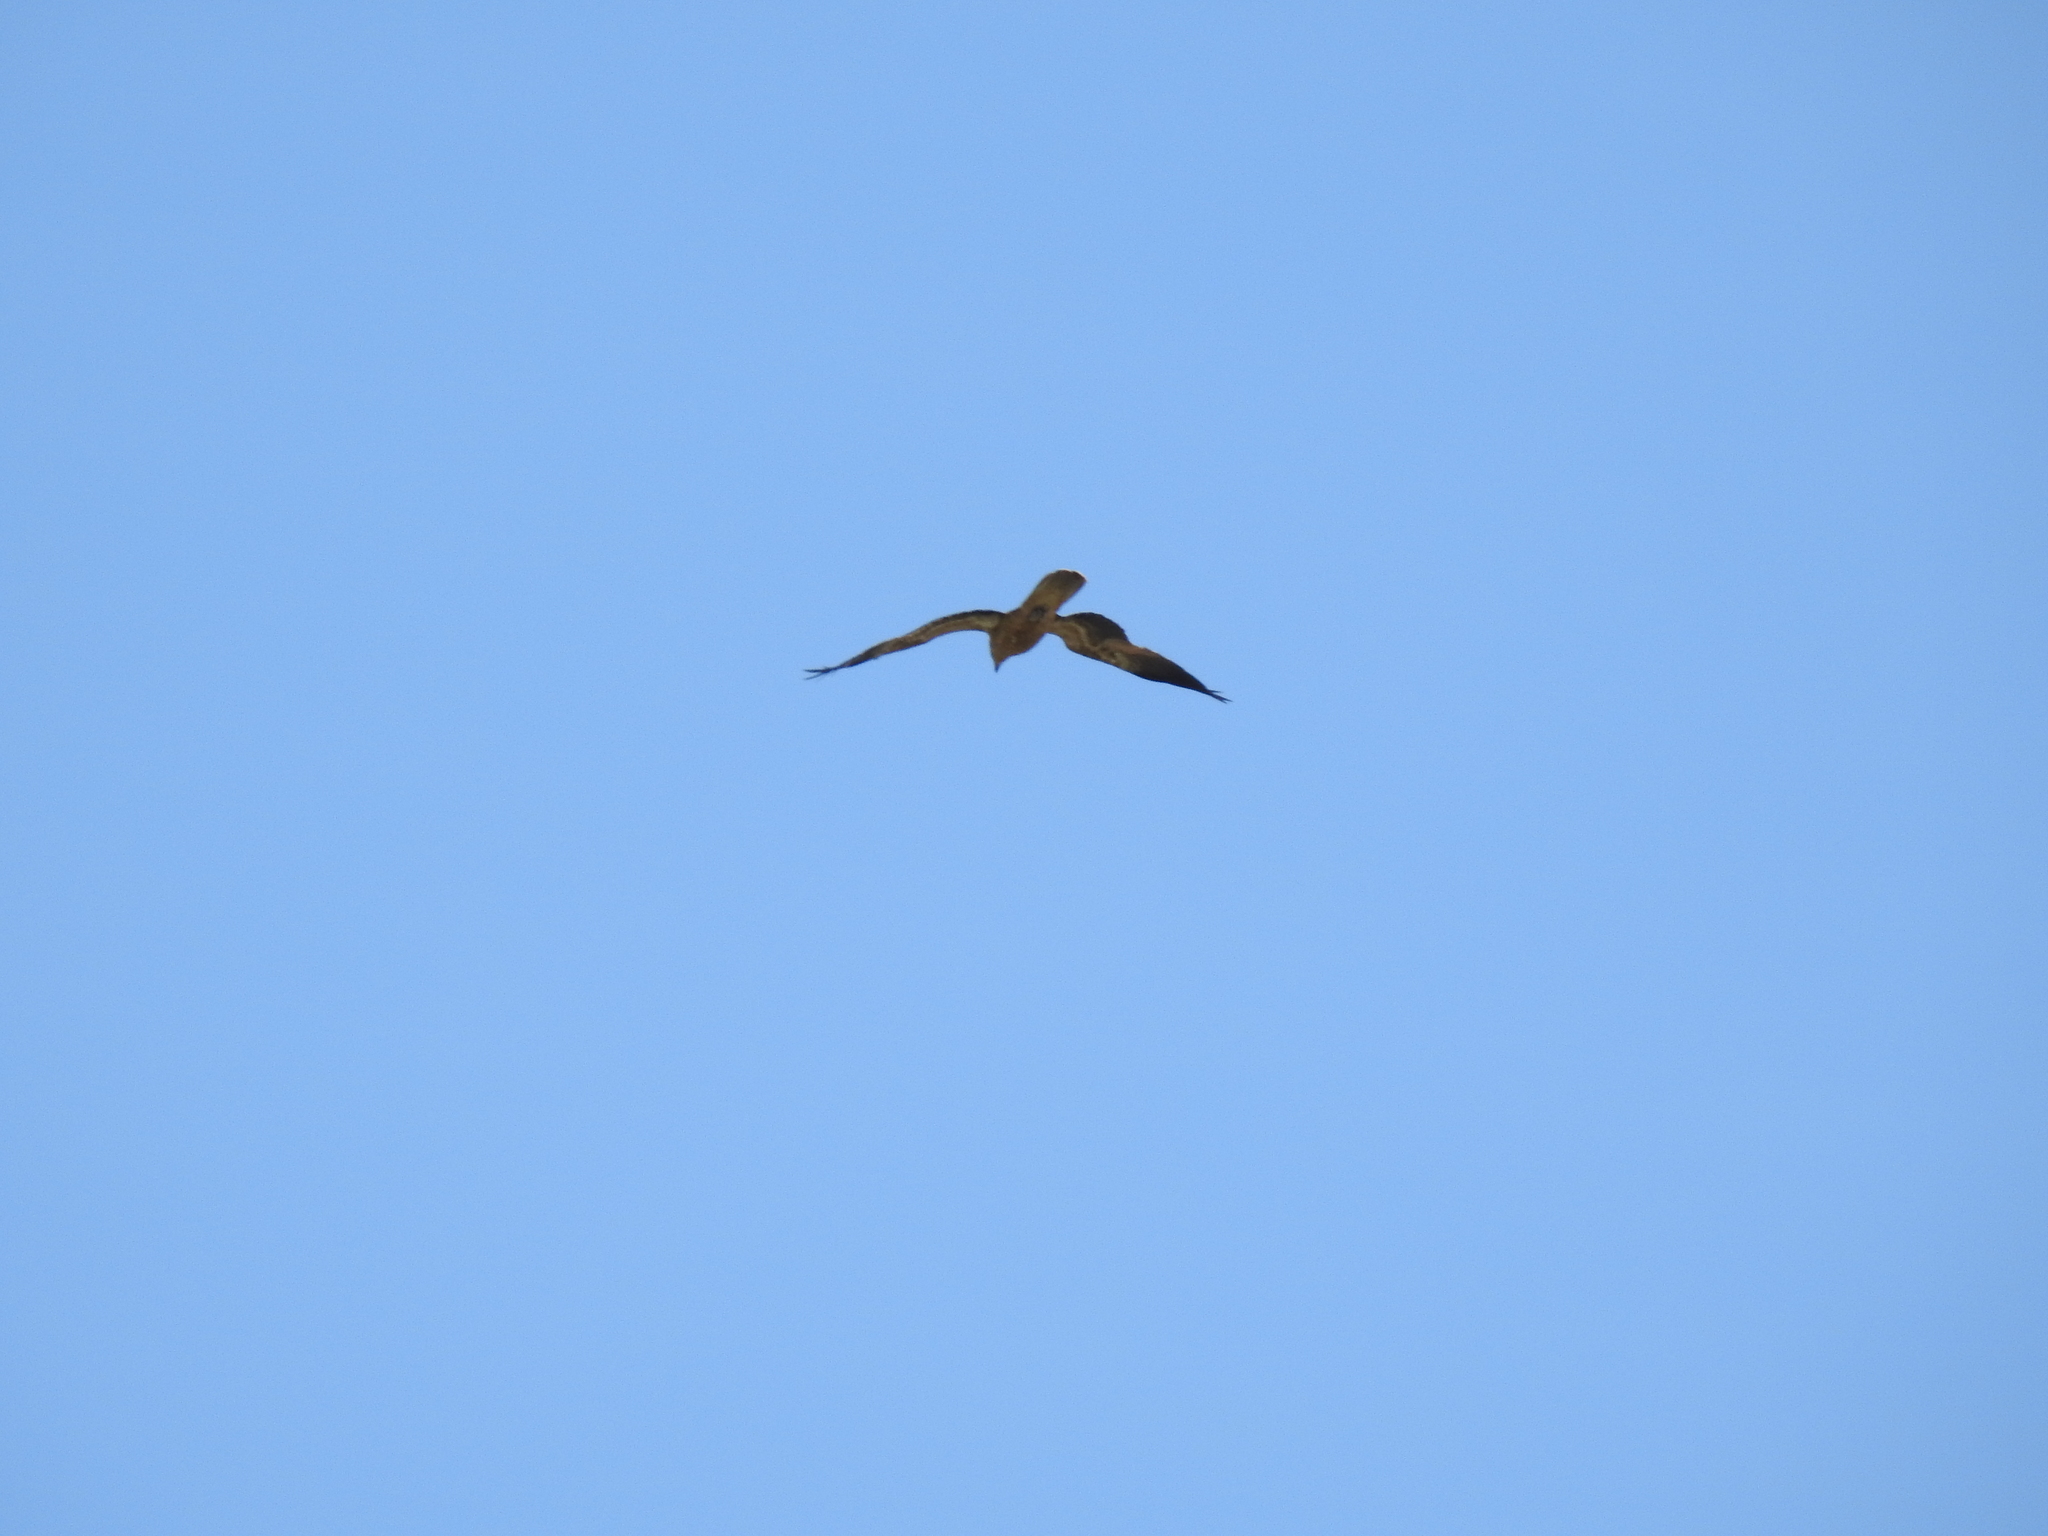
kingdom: Animalia
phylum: Chordata
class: Aves
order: Accipitriformes
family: Accipitridae
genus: Haliastur
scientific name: Haliastur sphenurus
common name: Whistling kite
